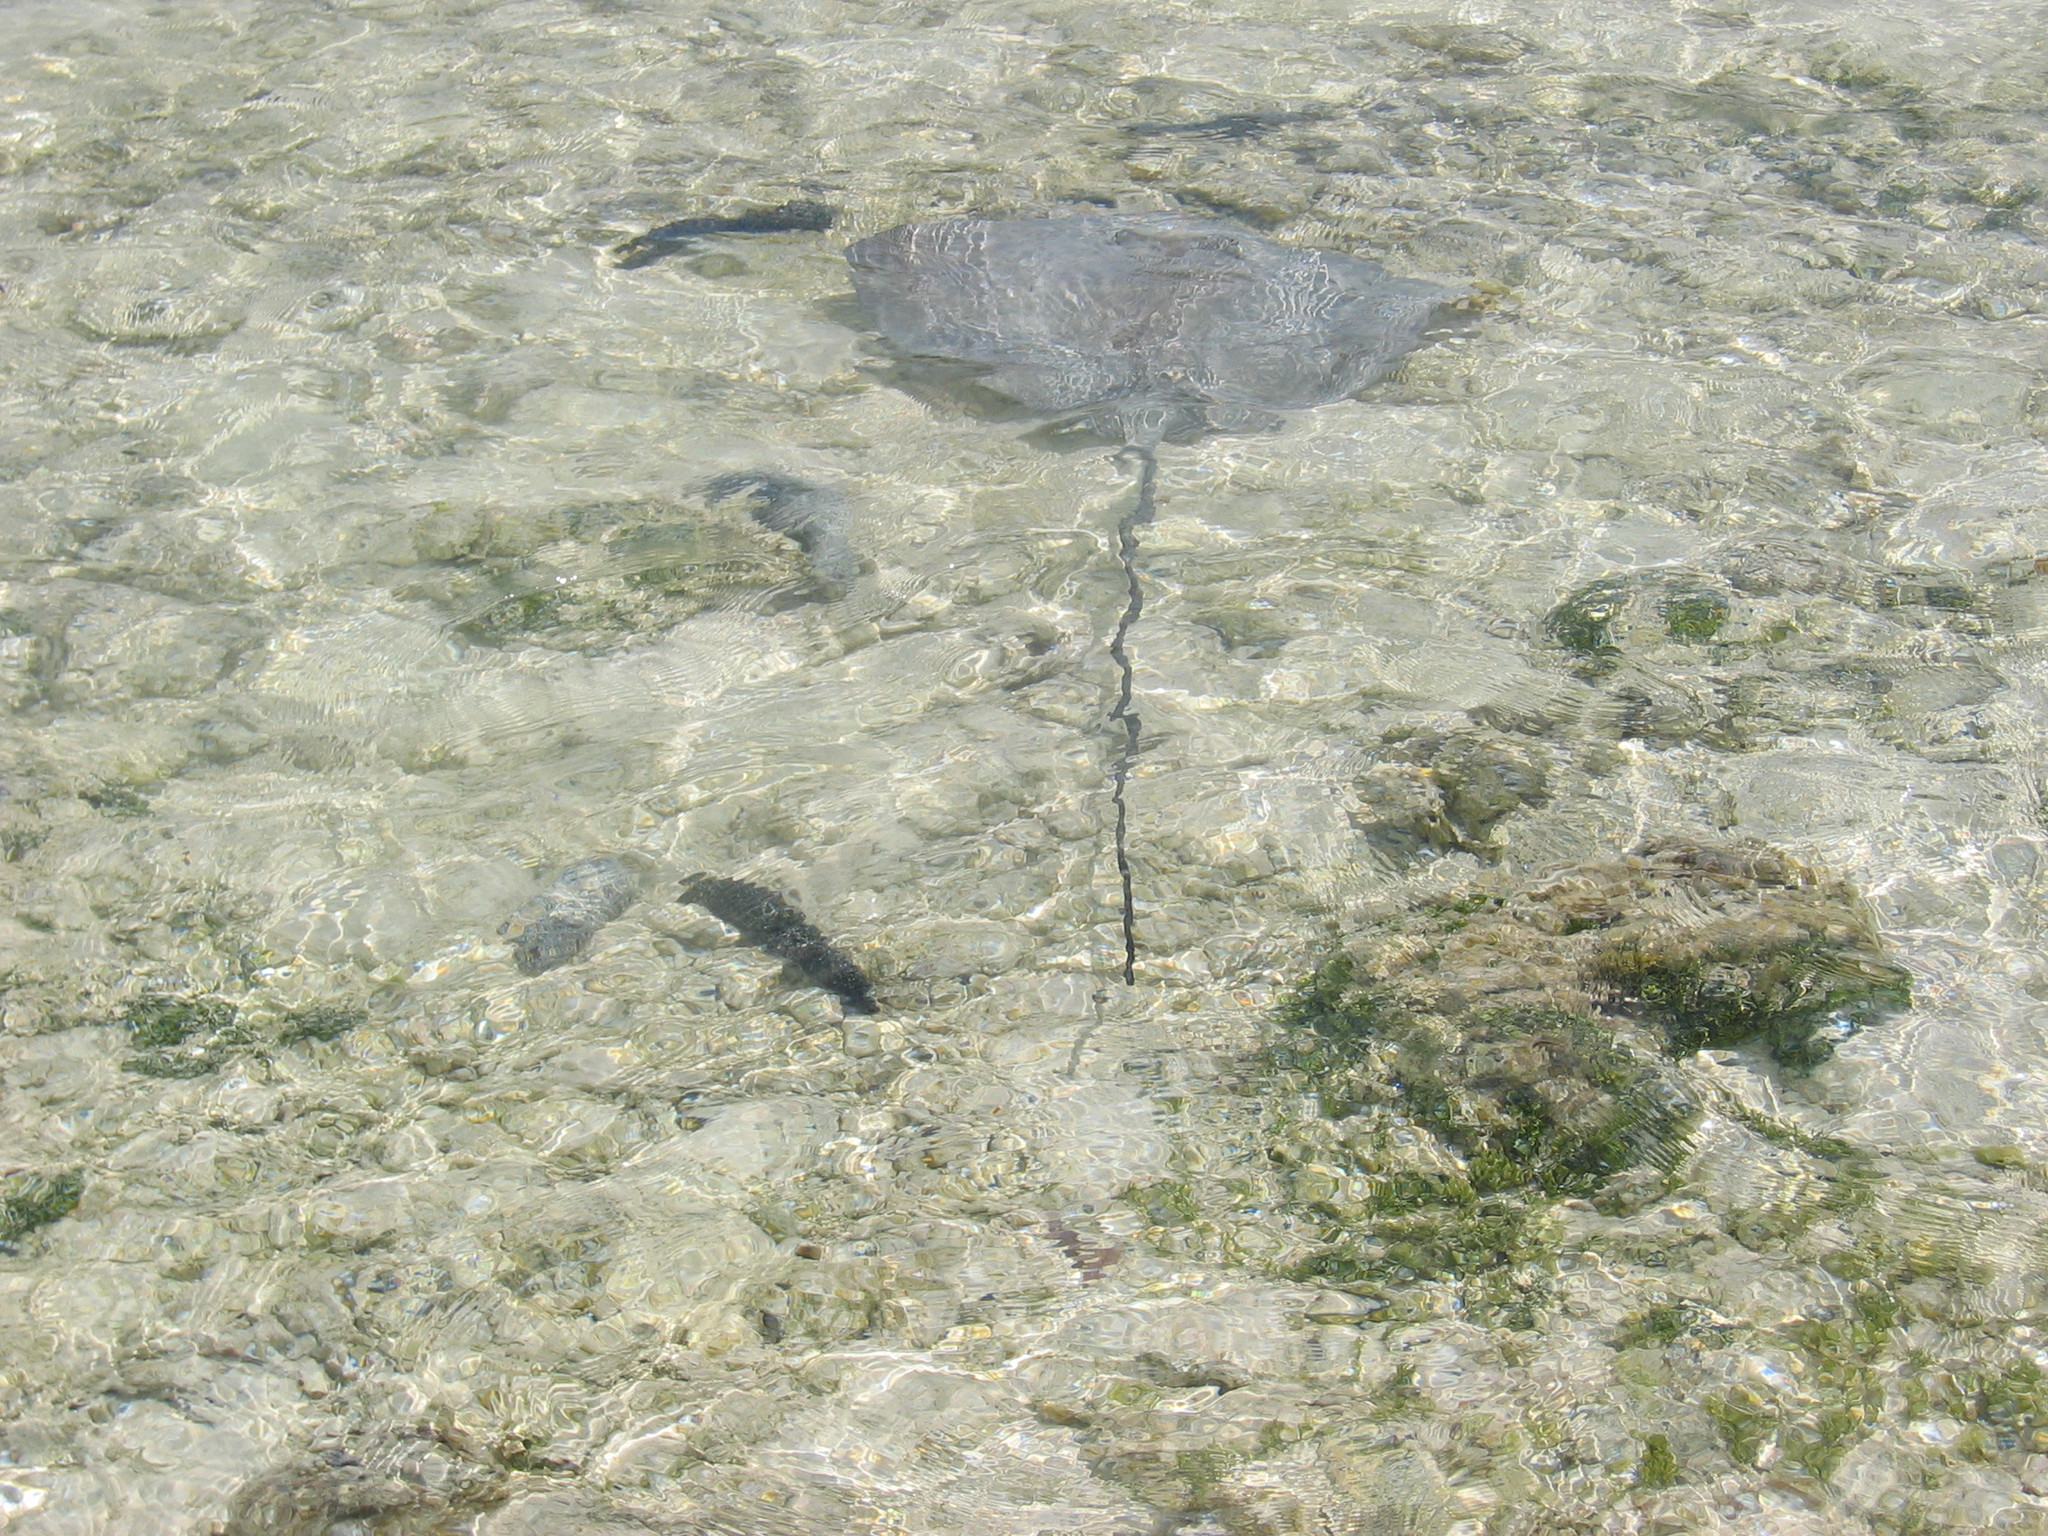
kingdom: Animalia
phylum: Chordata
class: Elasmobranchii
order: Myliobatiformes
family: Dasyatidae
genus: Pateobatis
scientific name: Pateobatis fai
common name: Pink whipray
